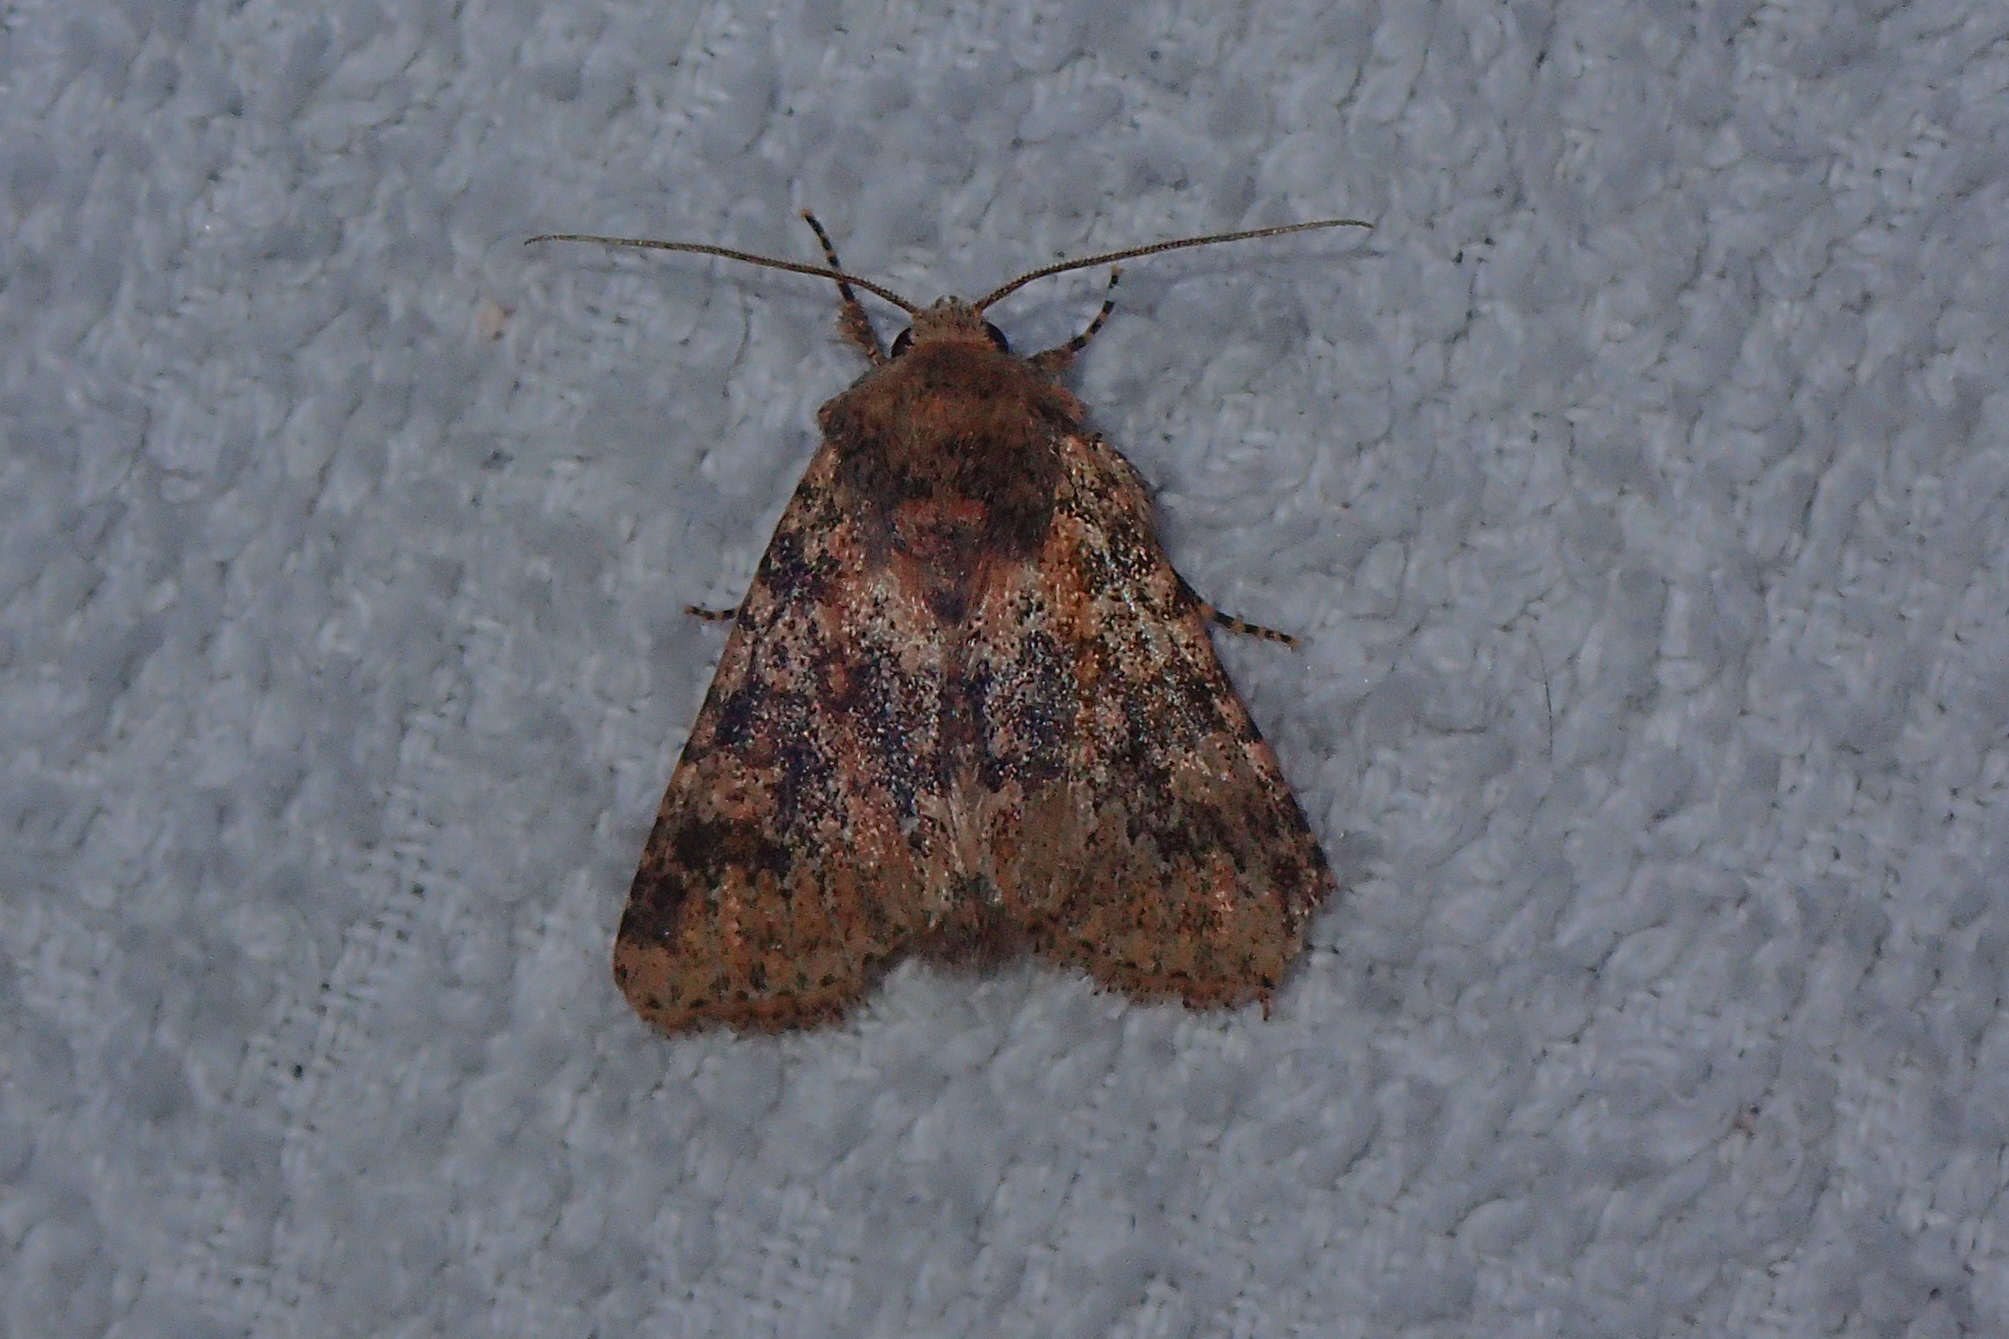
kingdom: Animalia
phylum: Arthropoda
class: Insecta
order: Lepidoptera
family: Noctuidae
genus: Polymixis
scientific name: Polymixis germana
